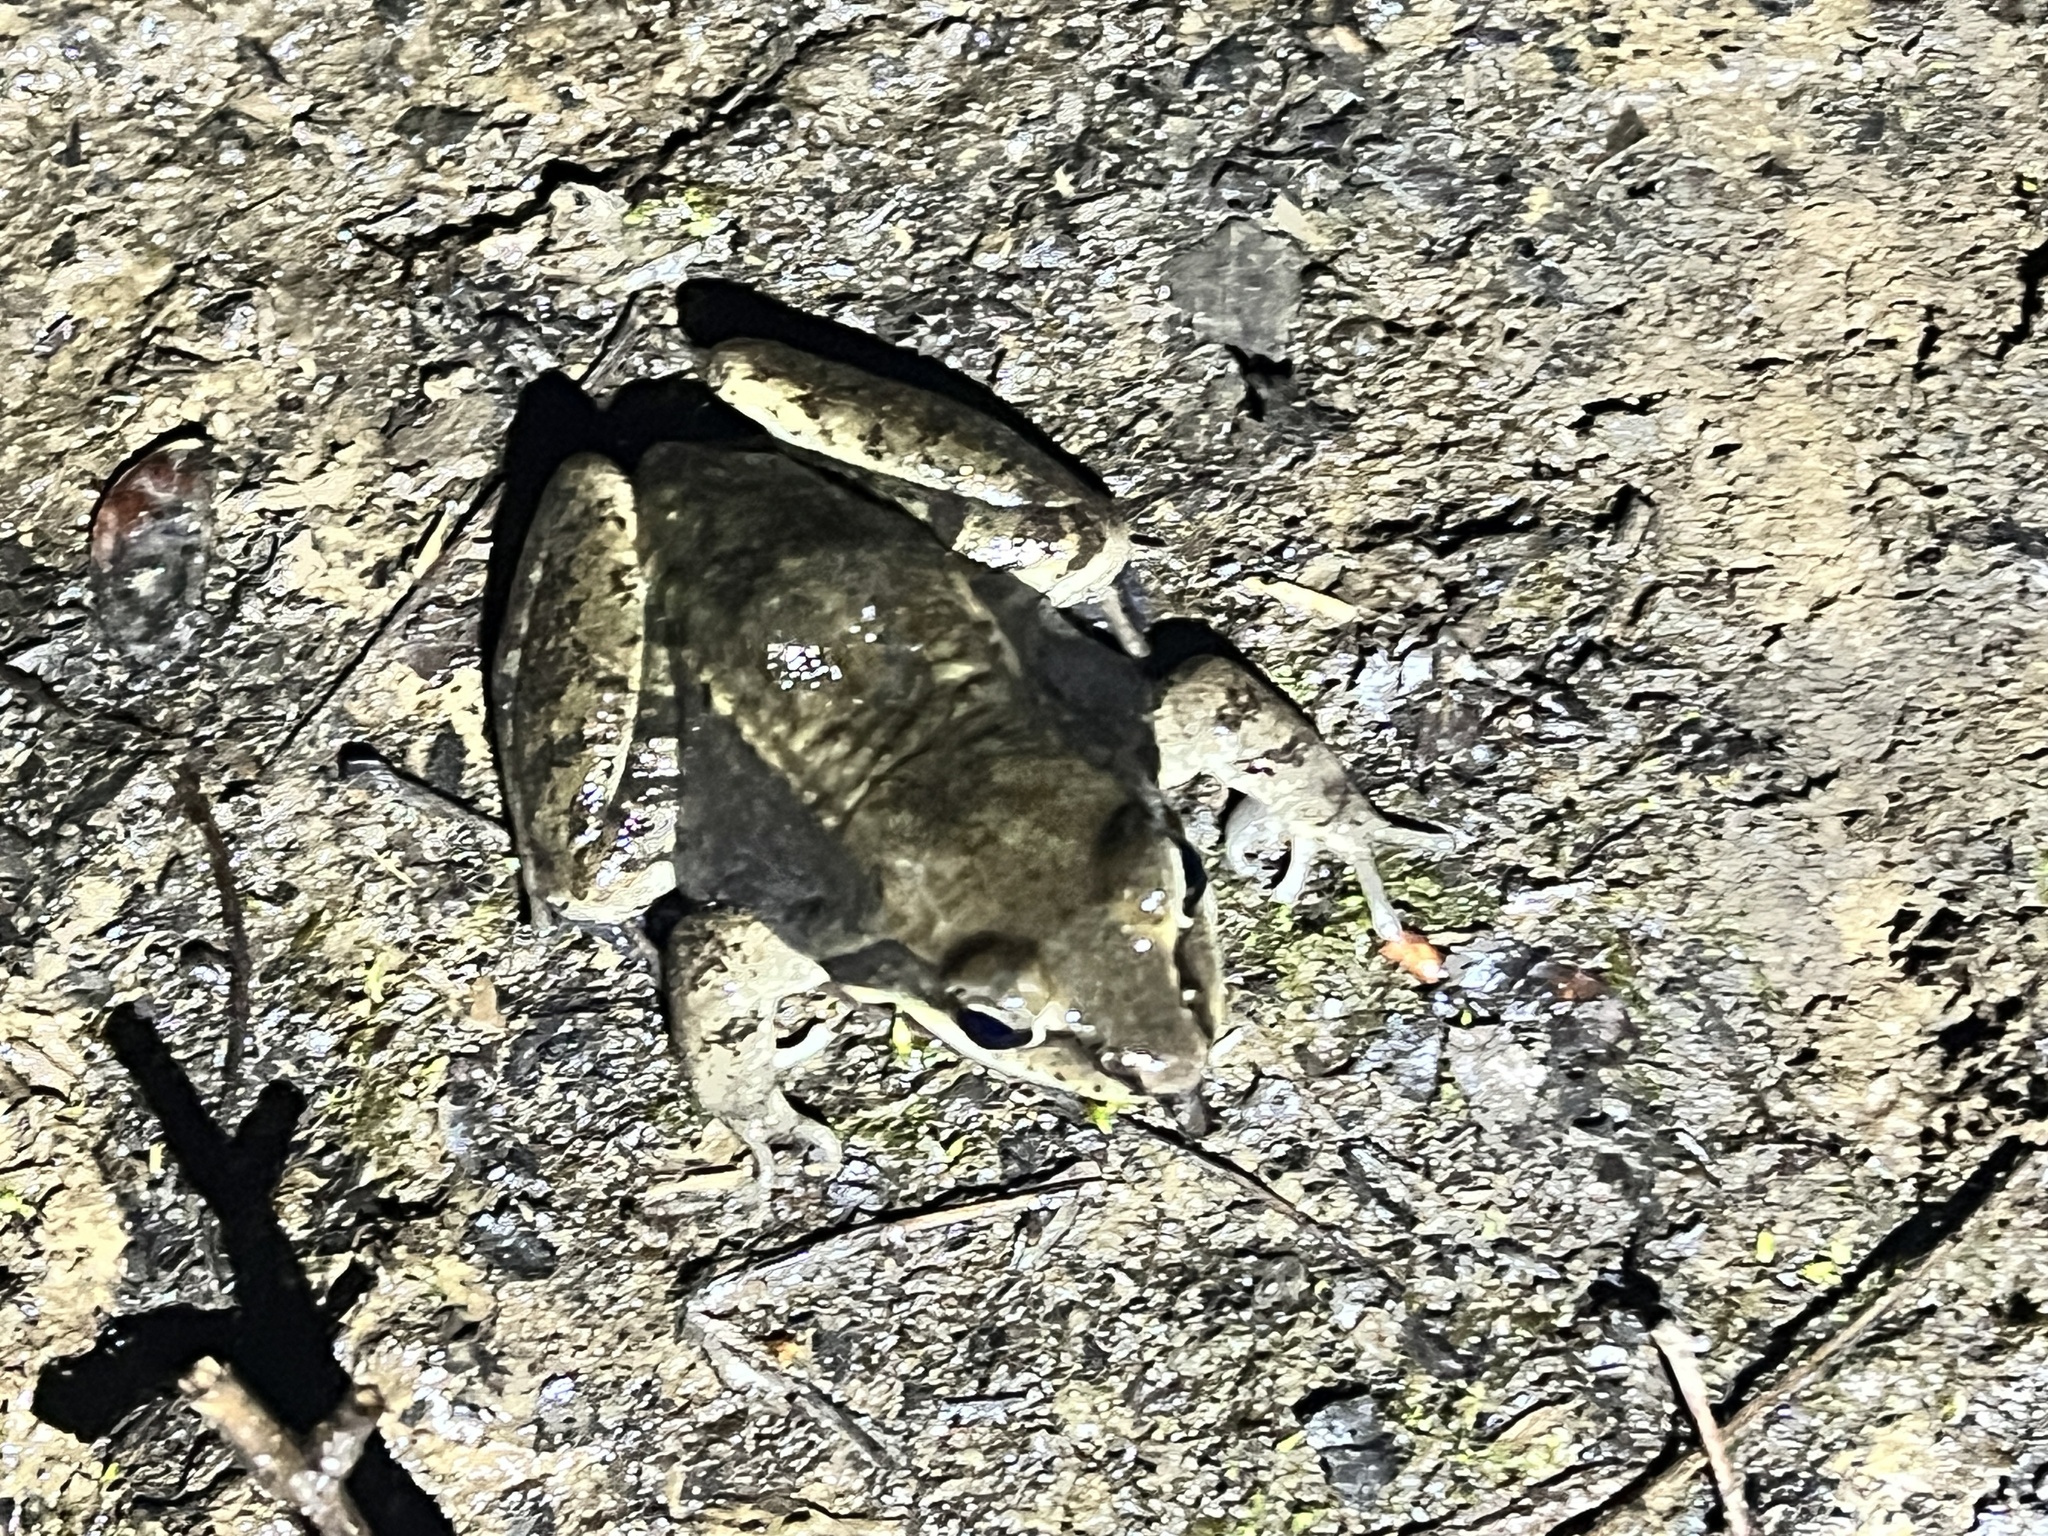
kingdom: Animalia
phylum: Chordata
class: Amphibia
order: Anura
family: Ranidae
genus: Lithobates
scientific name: Lithobates sylvaticus
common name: Wood frog
